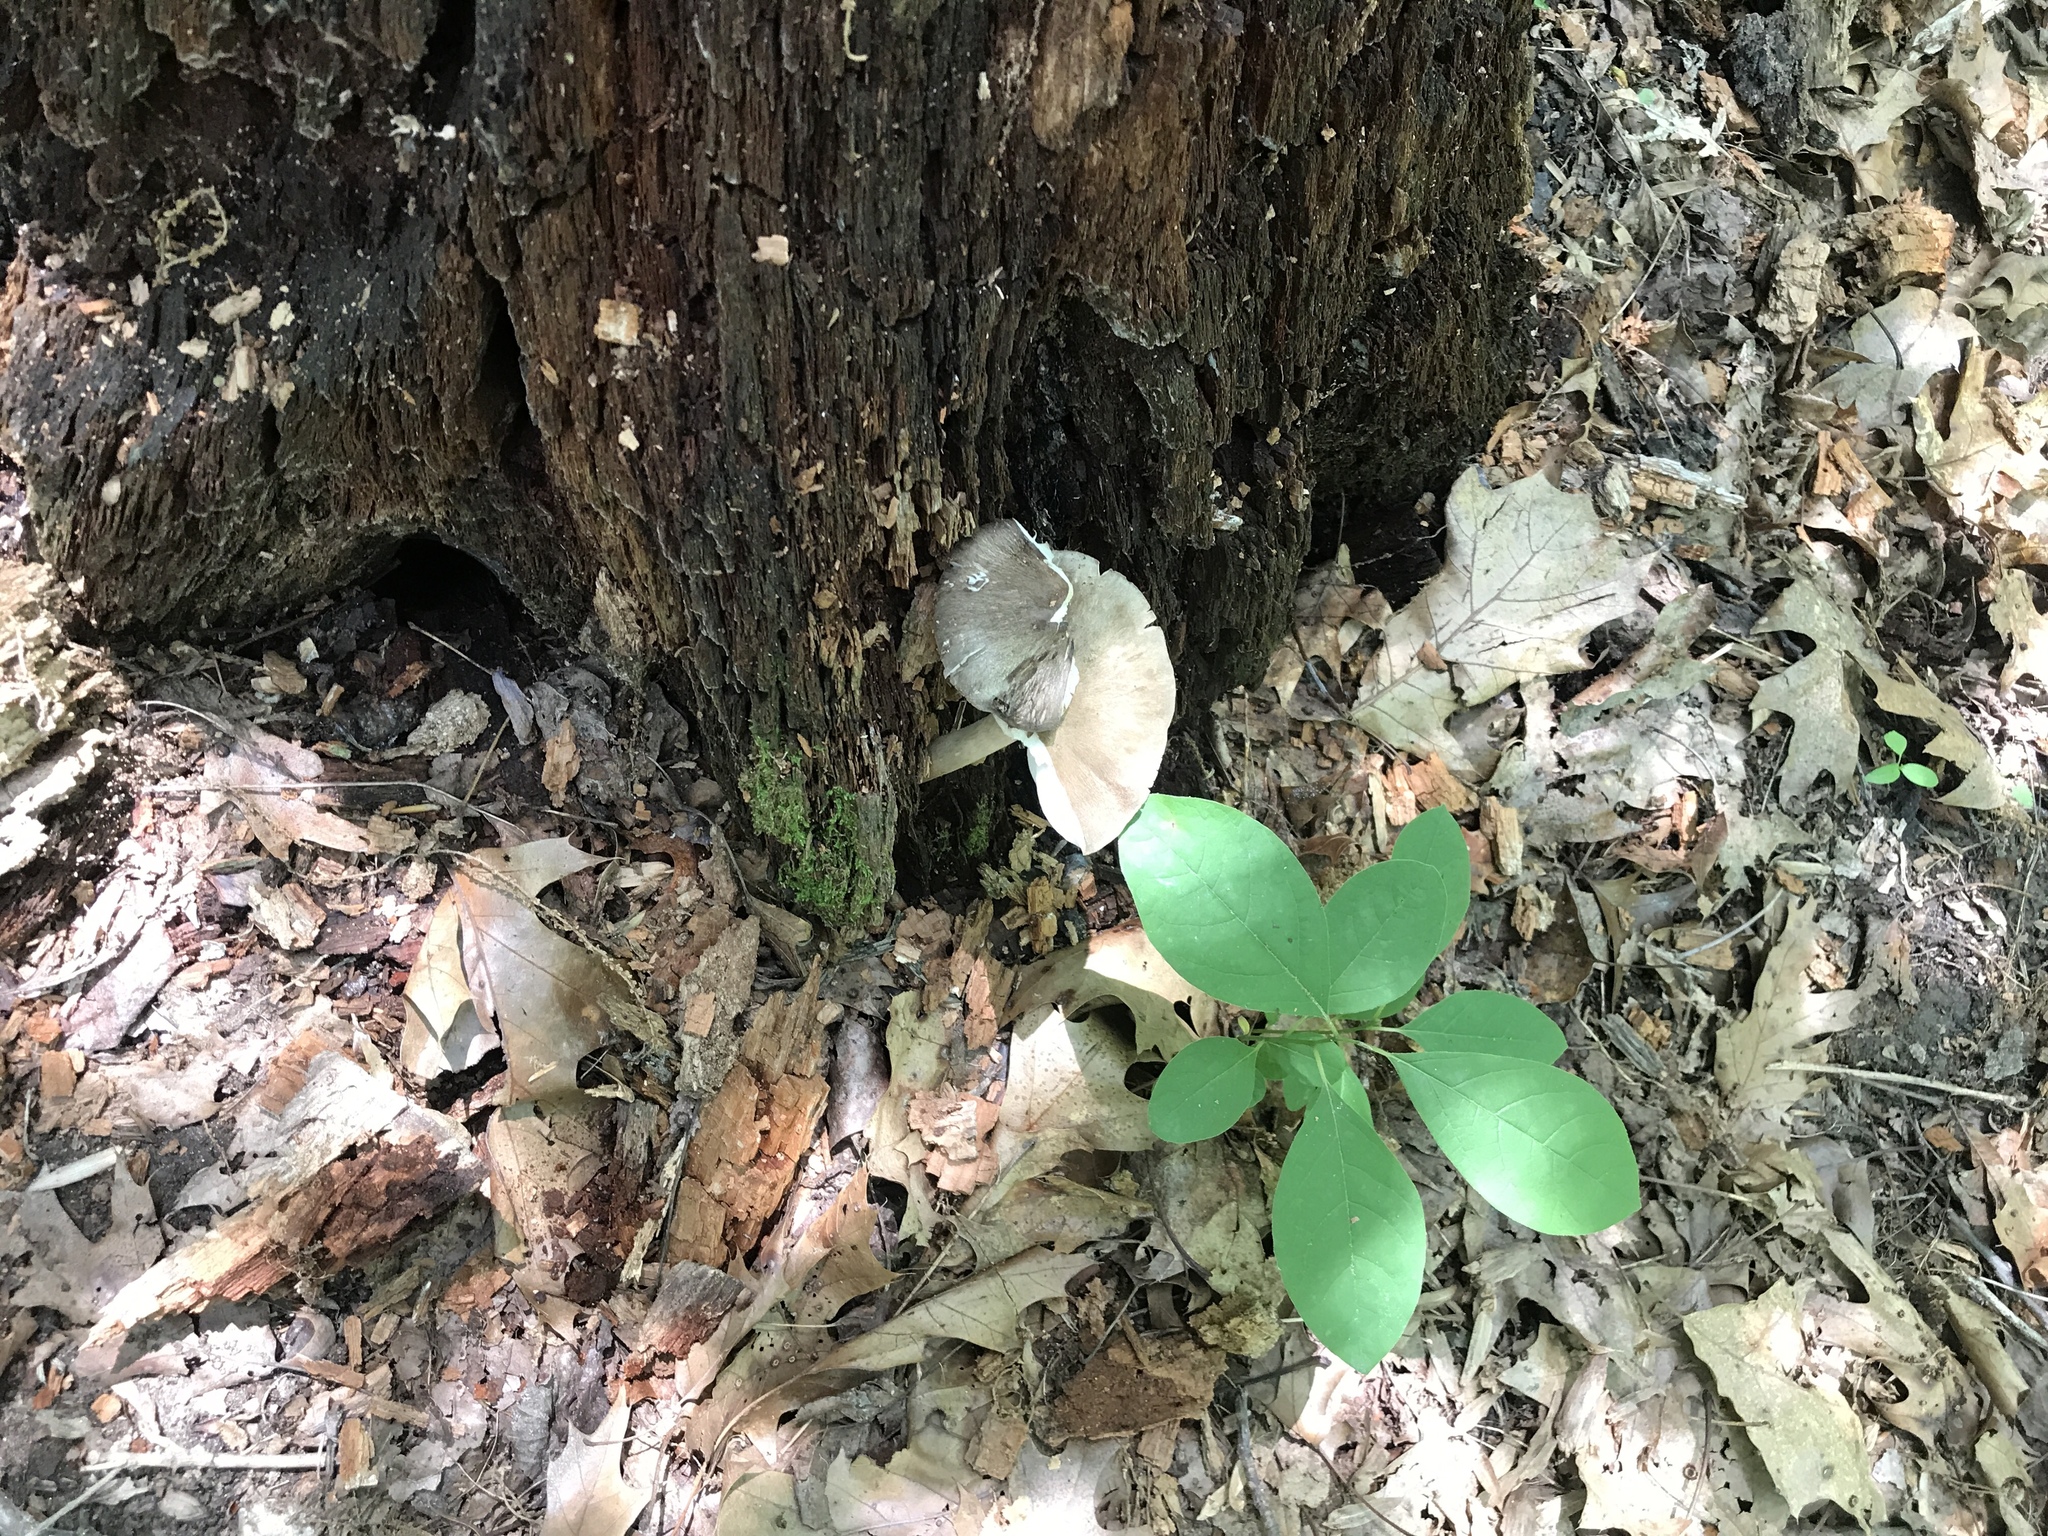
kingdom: Fungi
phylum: Basidiomycota
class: Agaricomycetes
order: Agaricales
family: Tricholomataceae
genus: Megacollybia
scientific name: Megacollybia rodmanii
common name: Eastern american platterful mushroom
